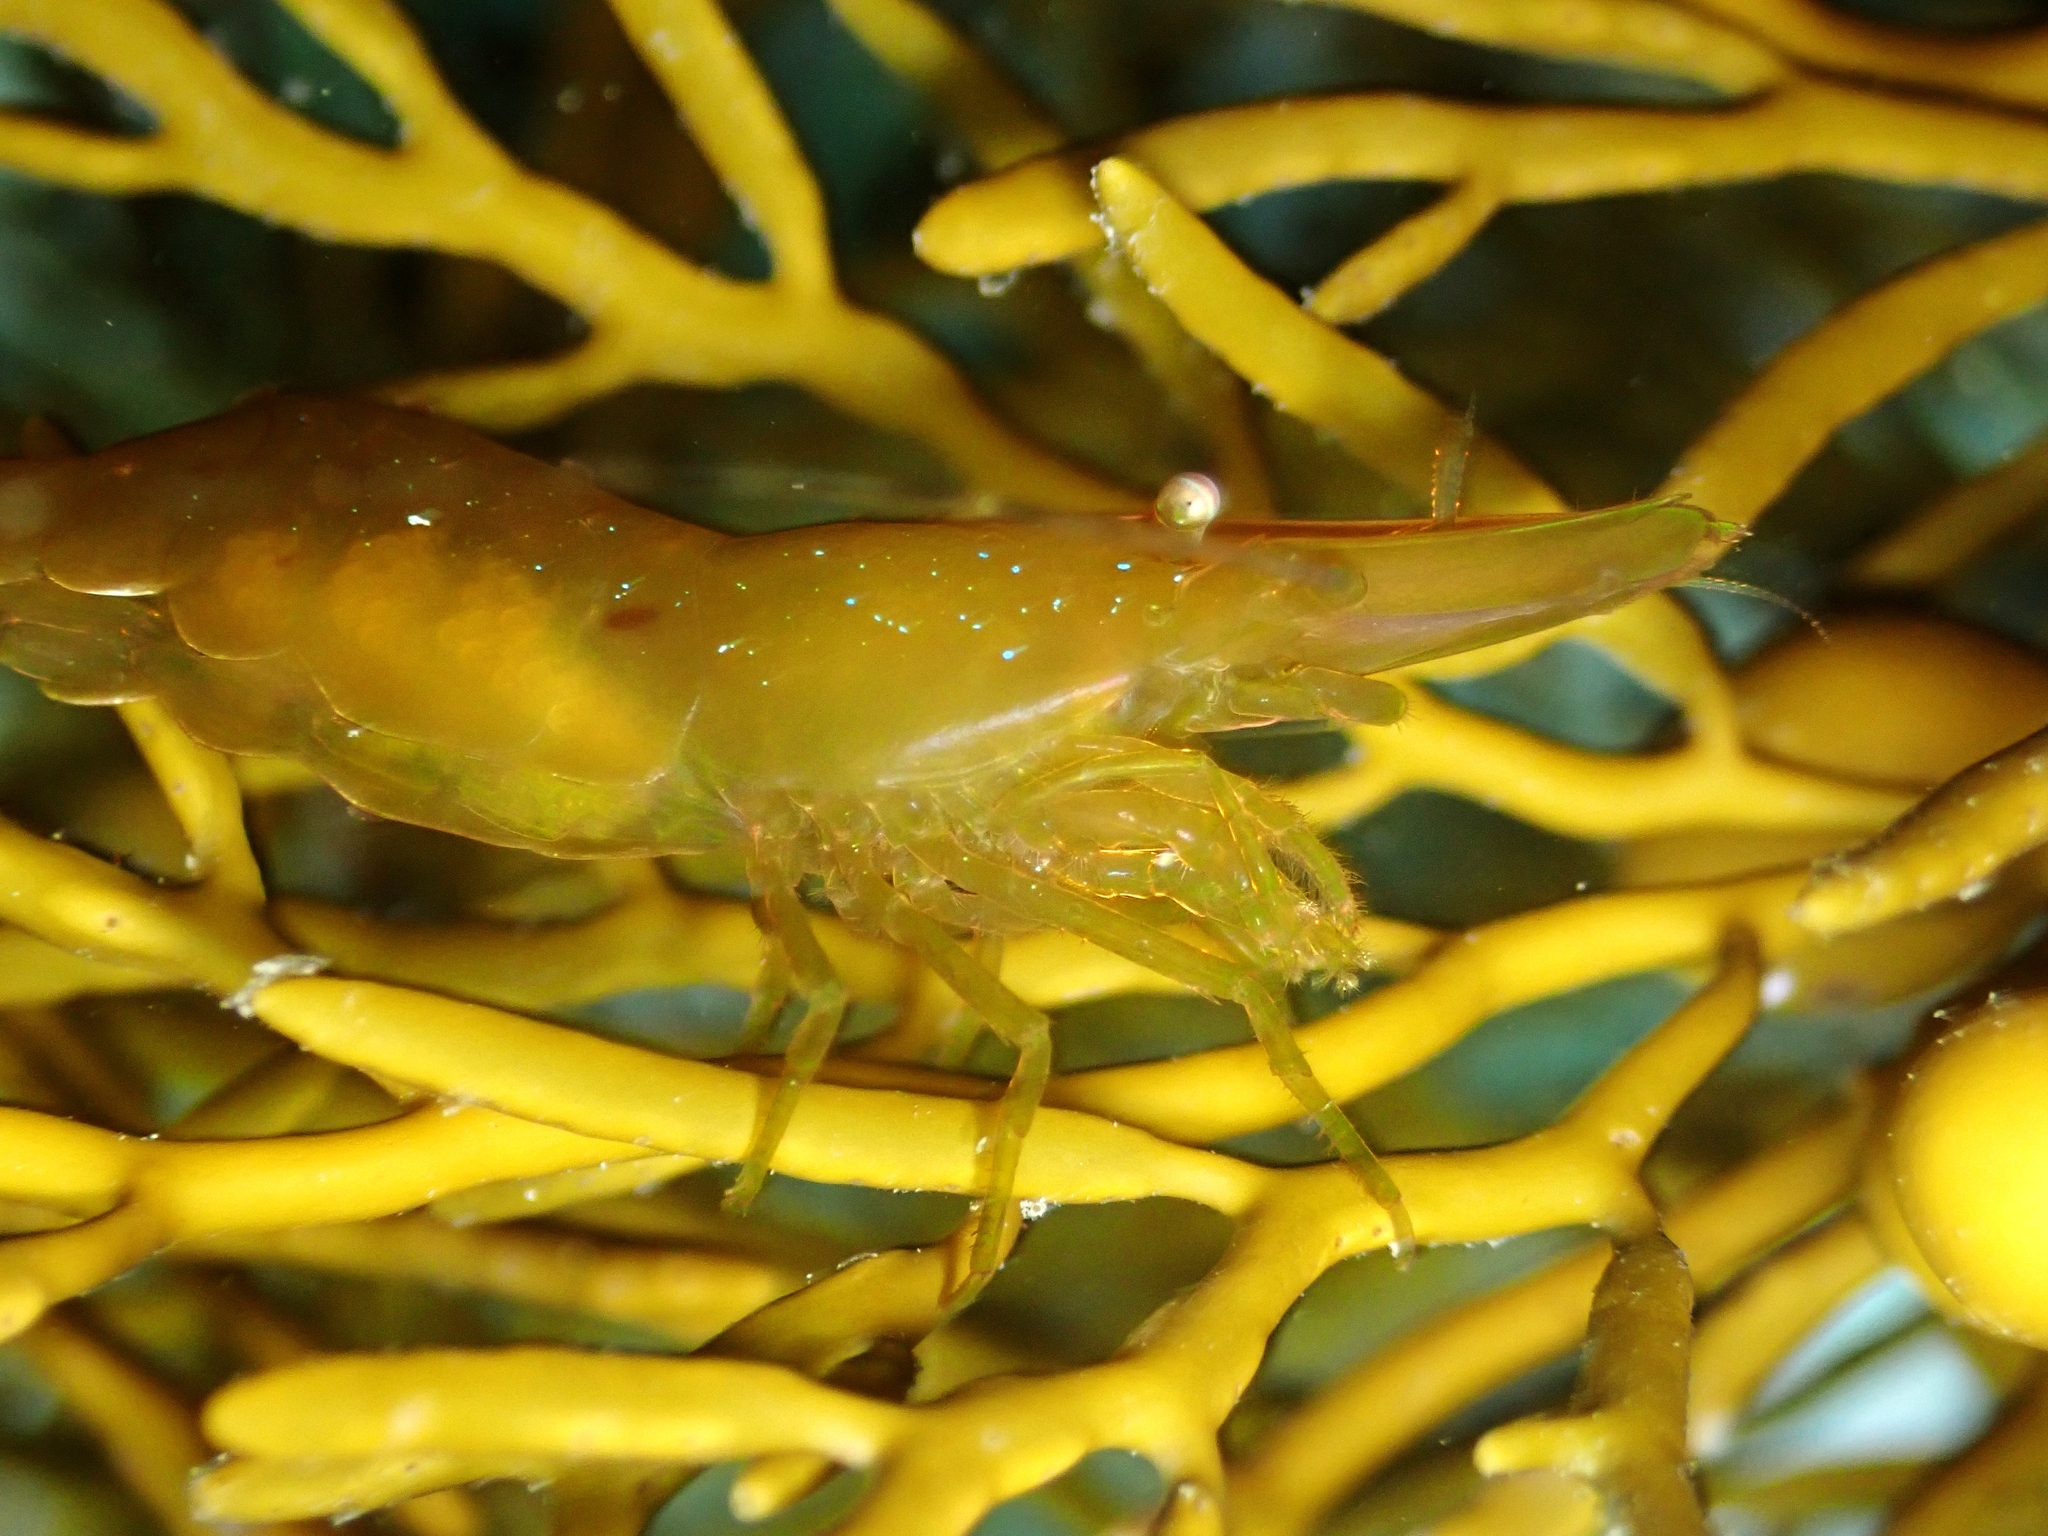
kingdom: Animalia
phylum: Arthropoda
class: Malacostraca
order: Decapoda
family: Hippolytidae
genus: Hippolyte
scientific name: Hippolyte multicolorata
